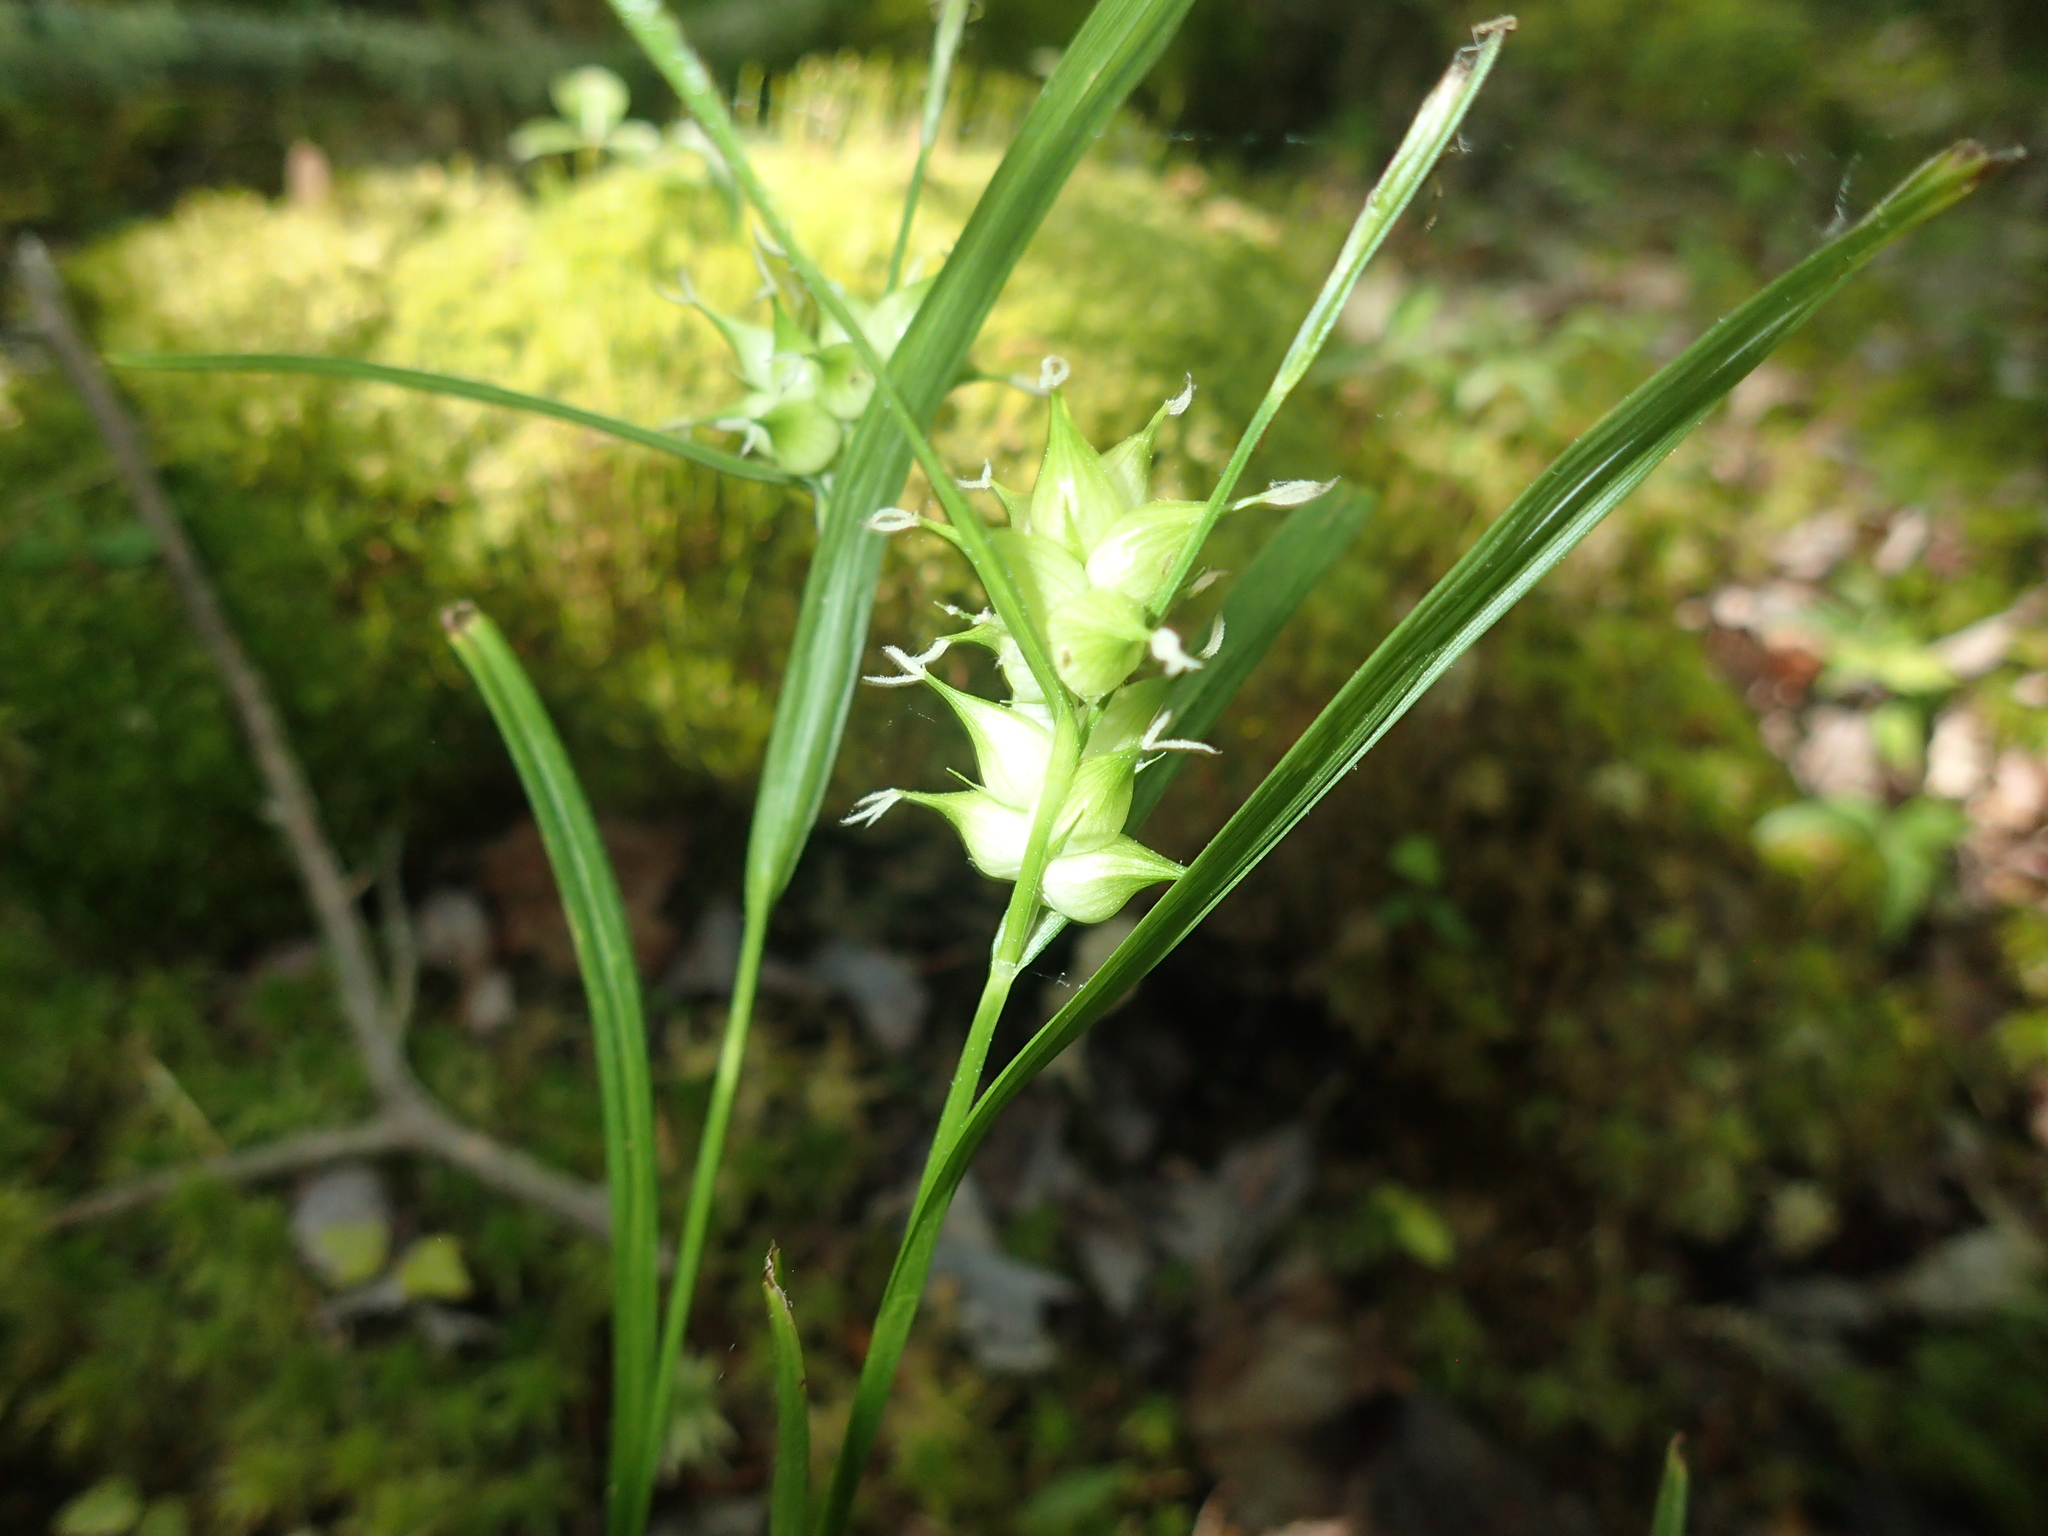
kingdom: Plantae
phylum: Tracheophyta
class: Liliopsida
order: Poales
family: Cyperaceae
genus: Carex
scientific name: Carex intumescens
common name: Greater bladder sedge
